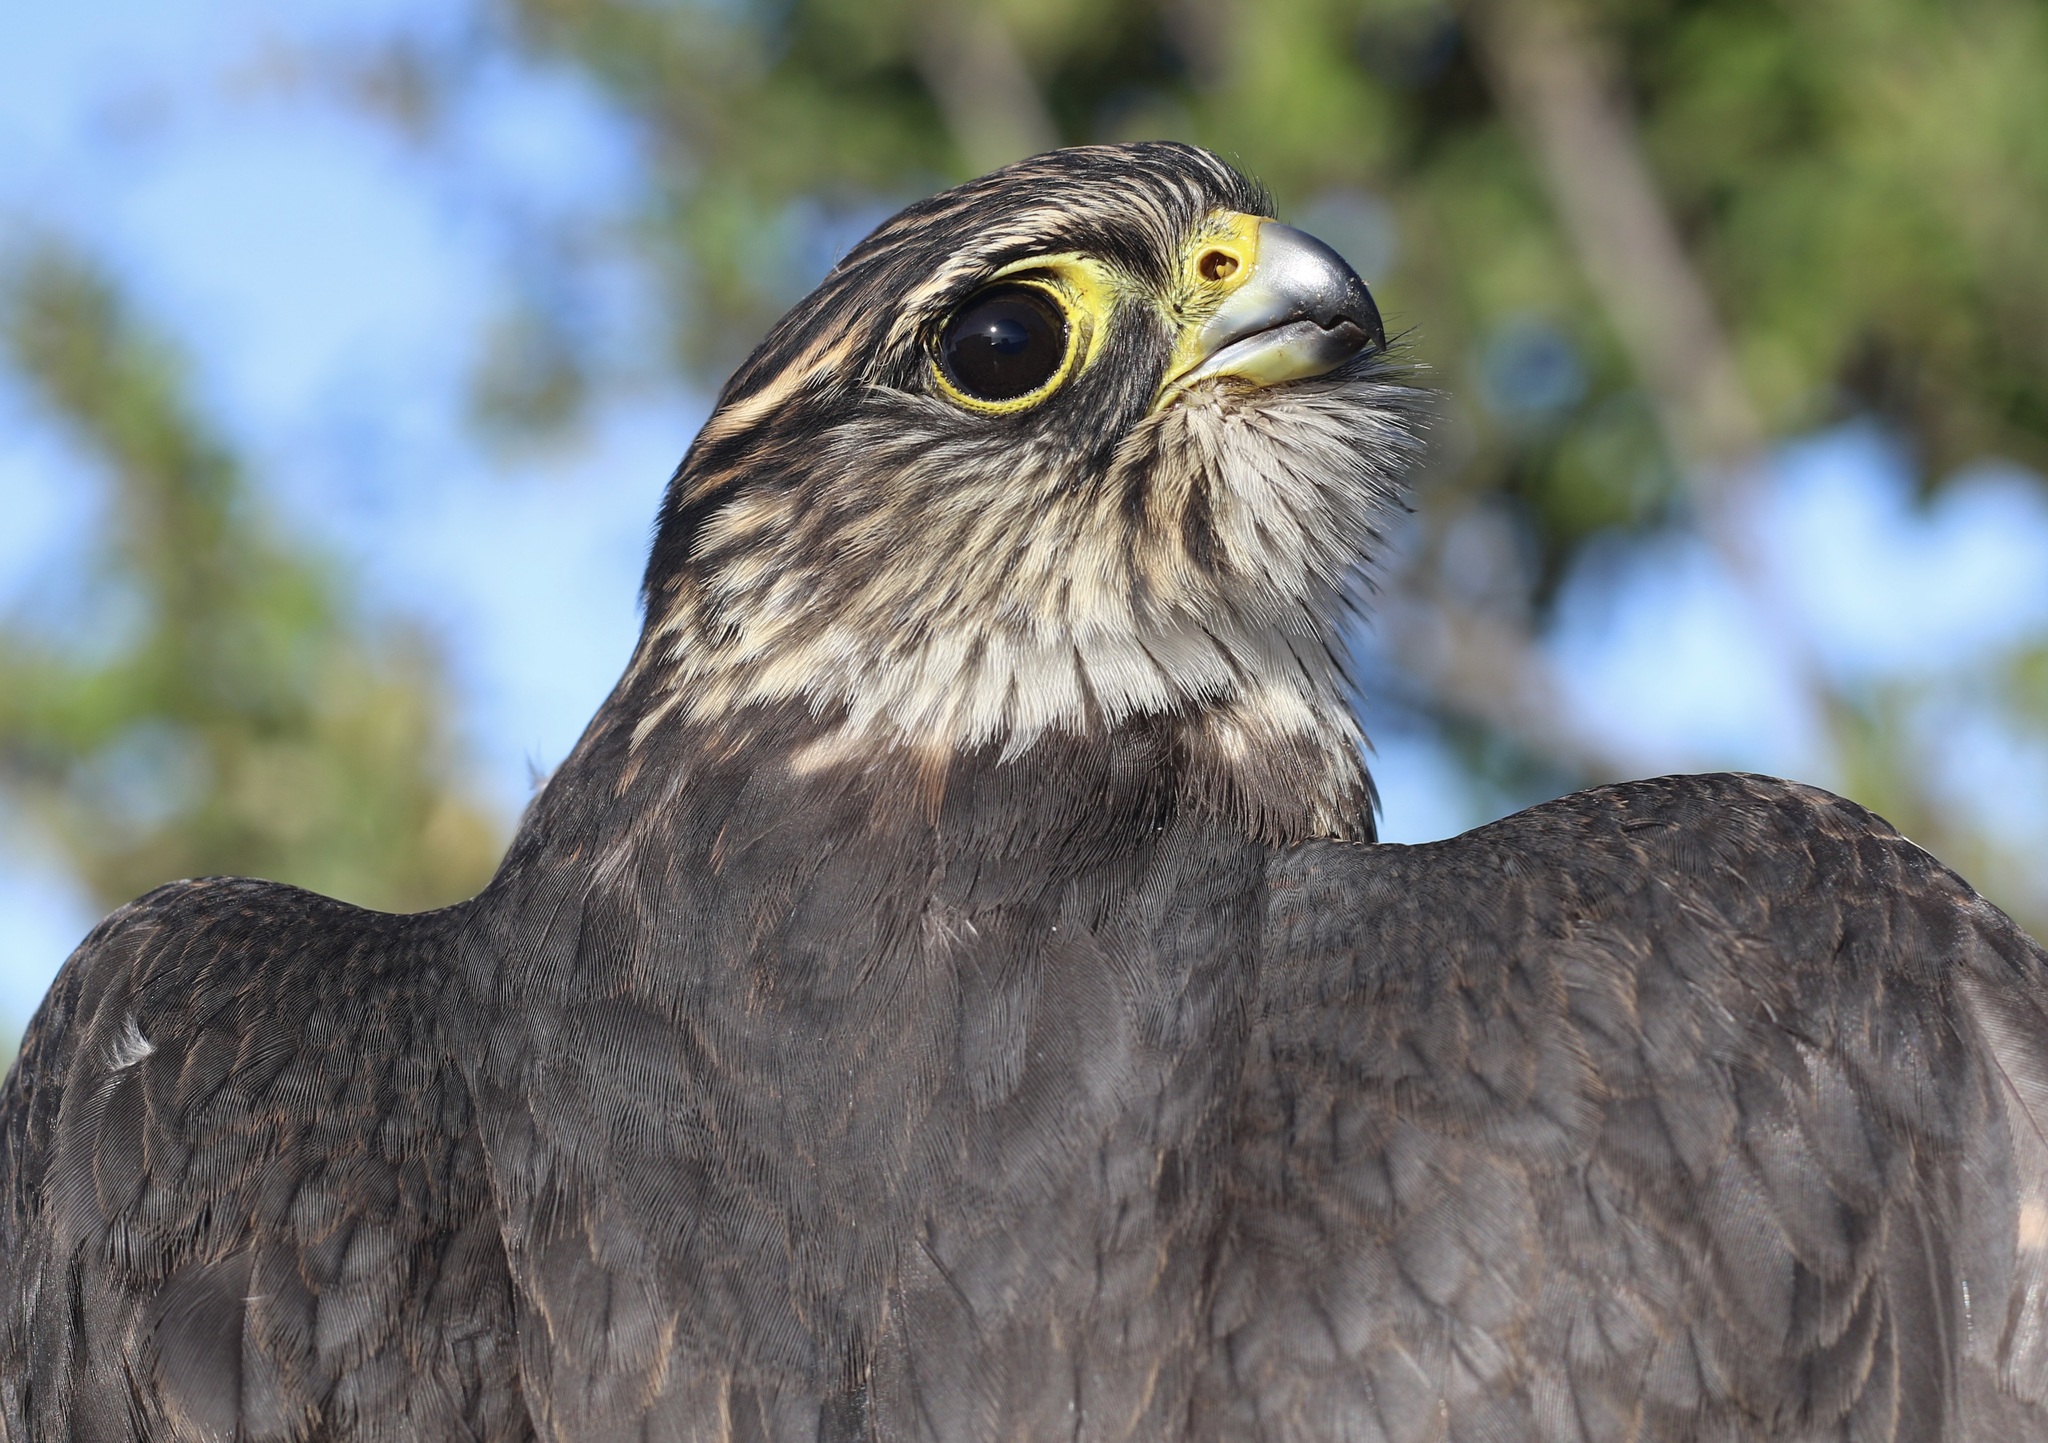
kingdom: Animalia
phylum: Chordata
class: Aves
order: Falconiformes
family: Falconidae
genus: Falco
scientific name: Falco columbarius
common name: Merlin
